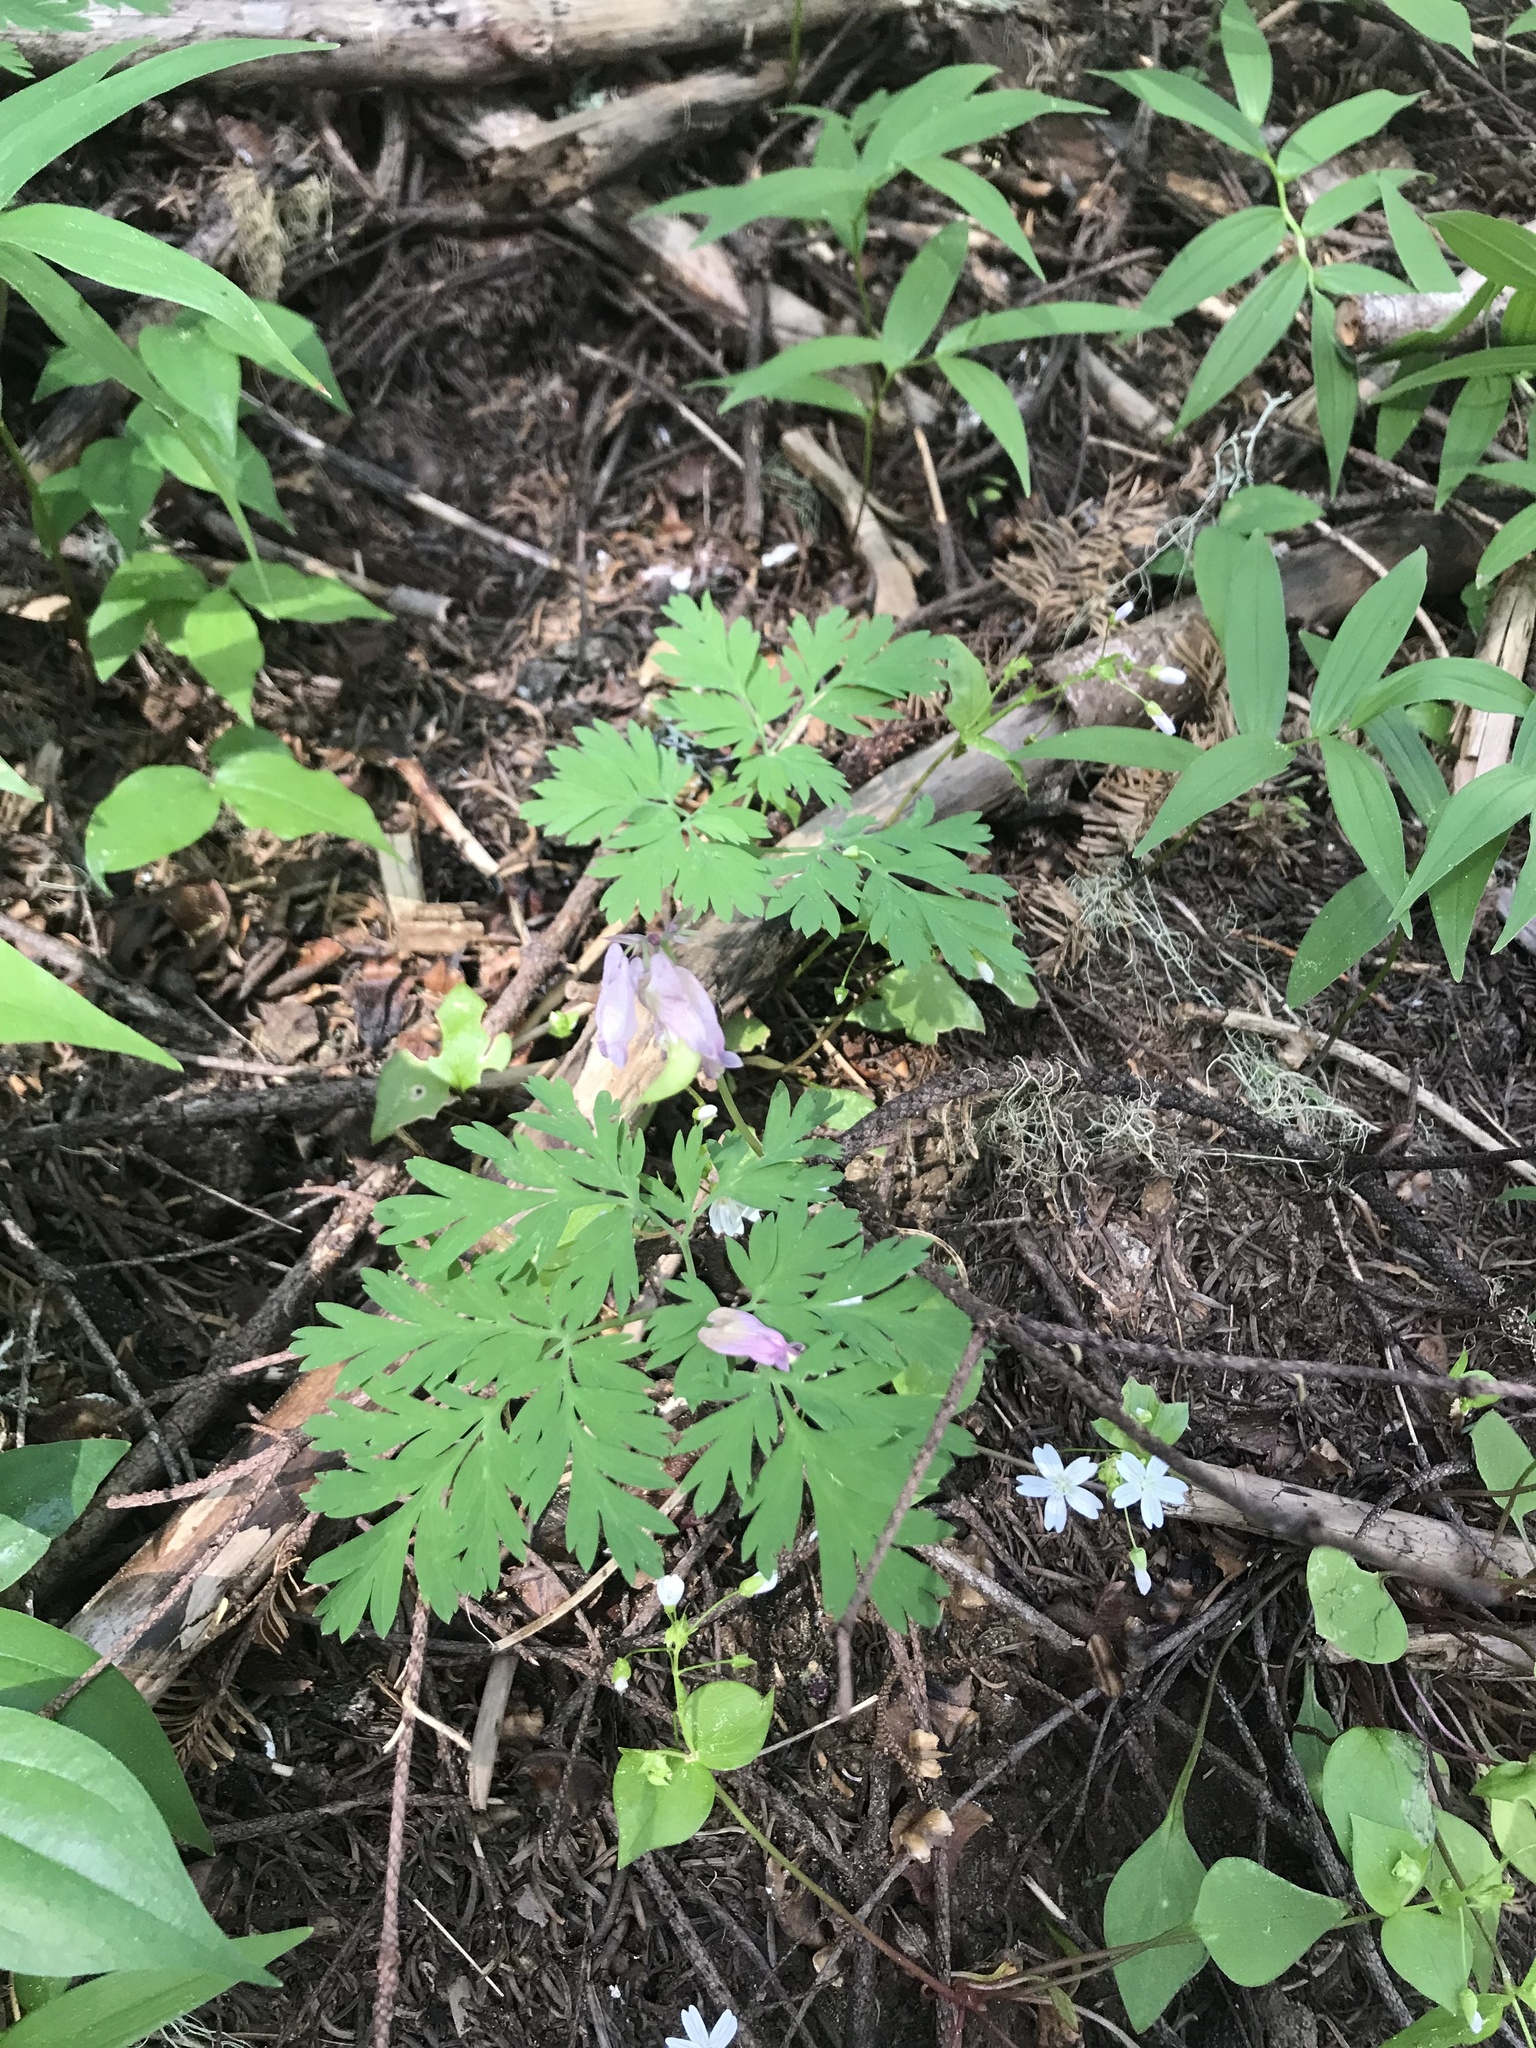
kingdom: Plantae
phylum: Tracheophyta
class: Magnoliopsida
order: Ranunculales
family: Papaveraceae
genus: Dicentra
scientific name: Dicentra formosa
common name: Bleeding-heart
